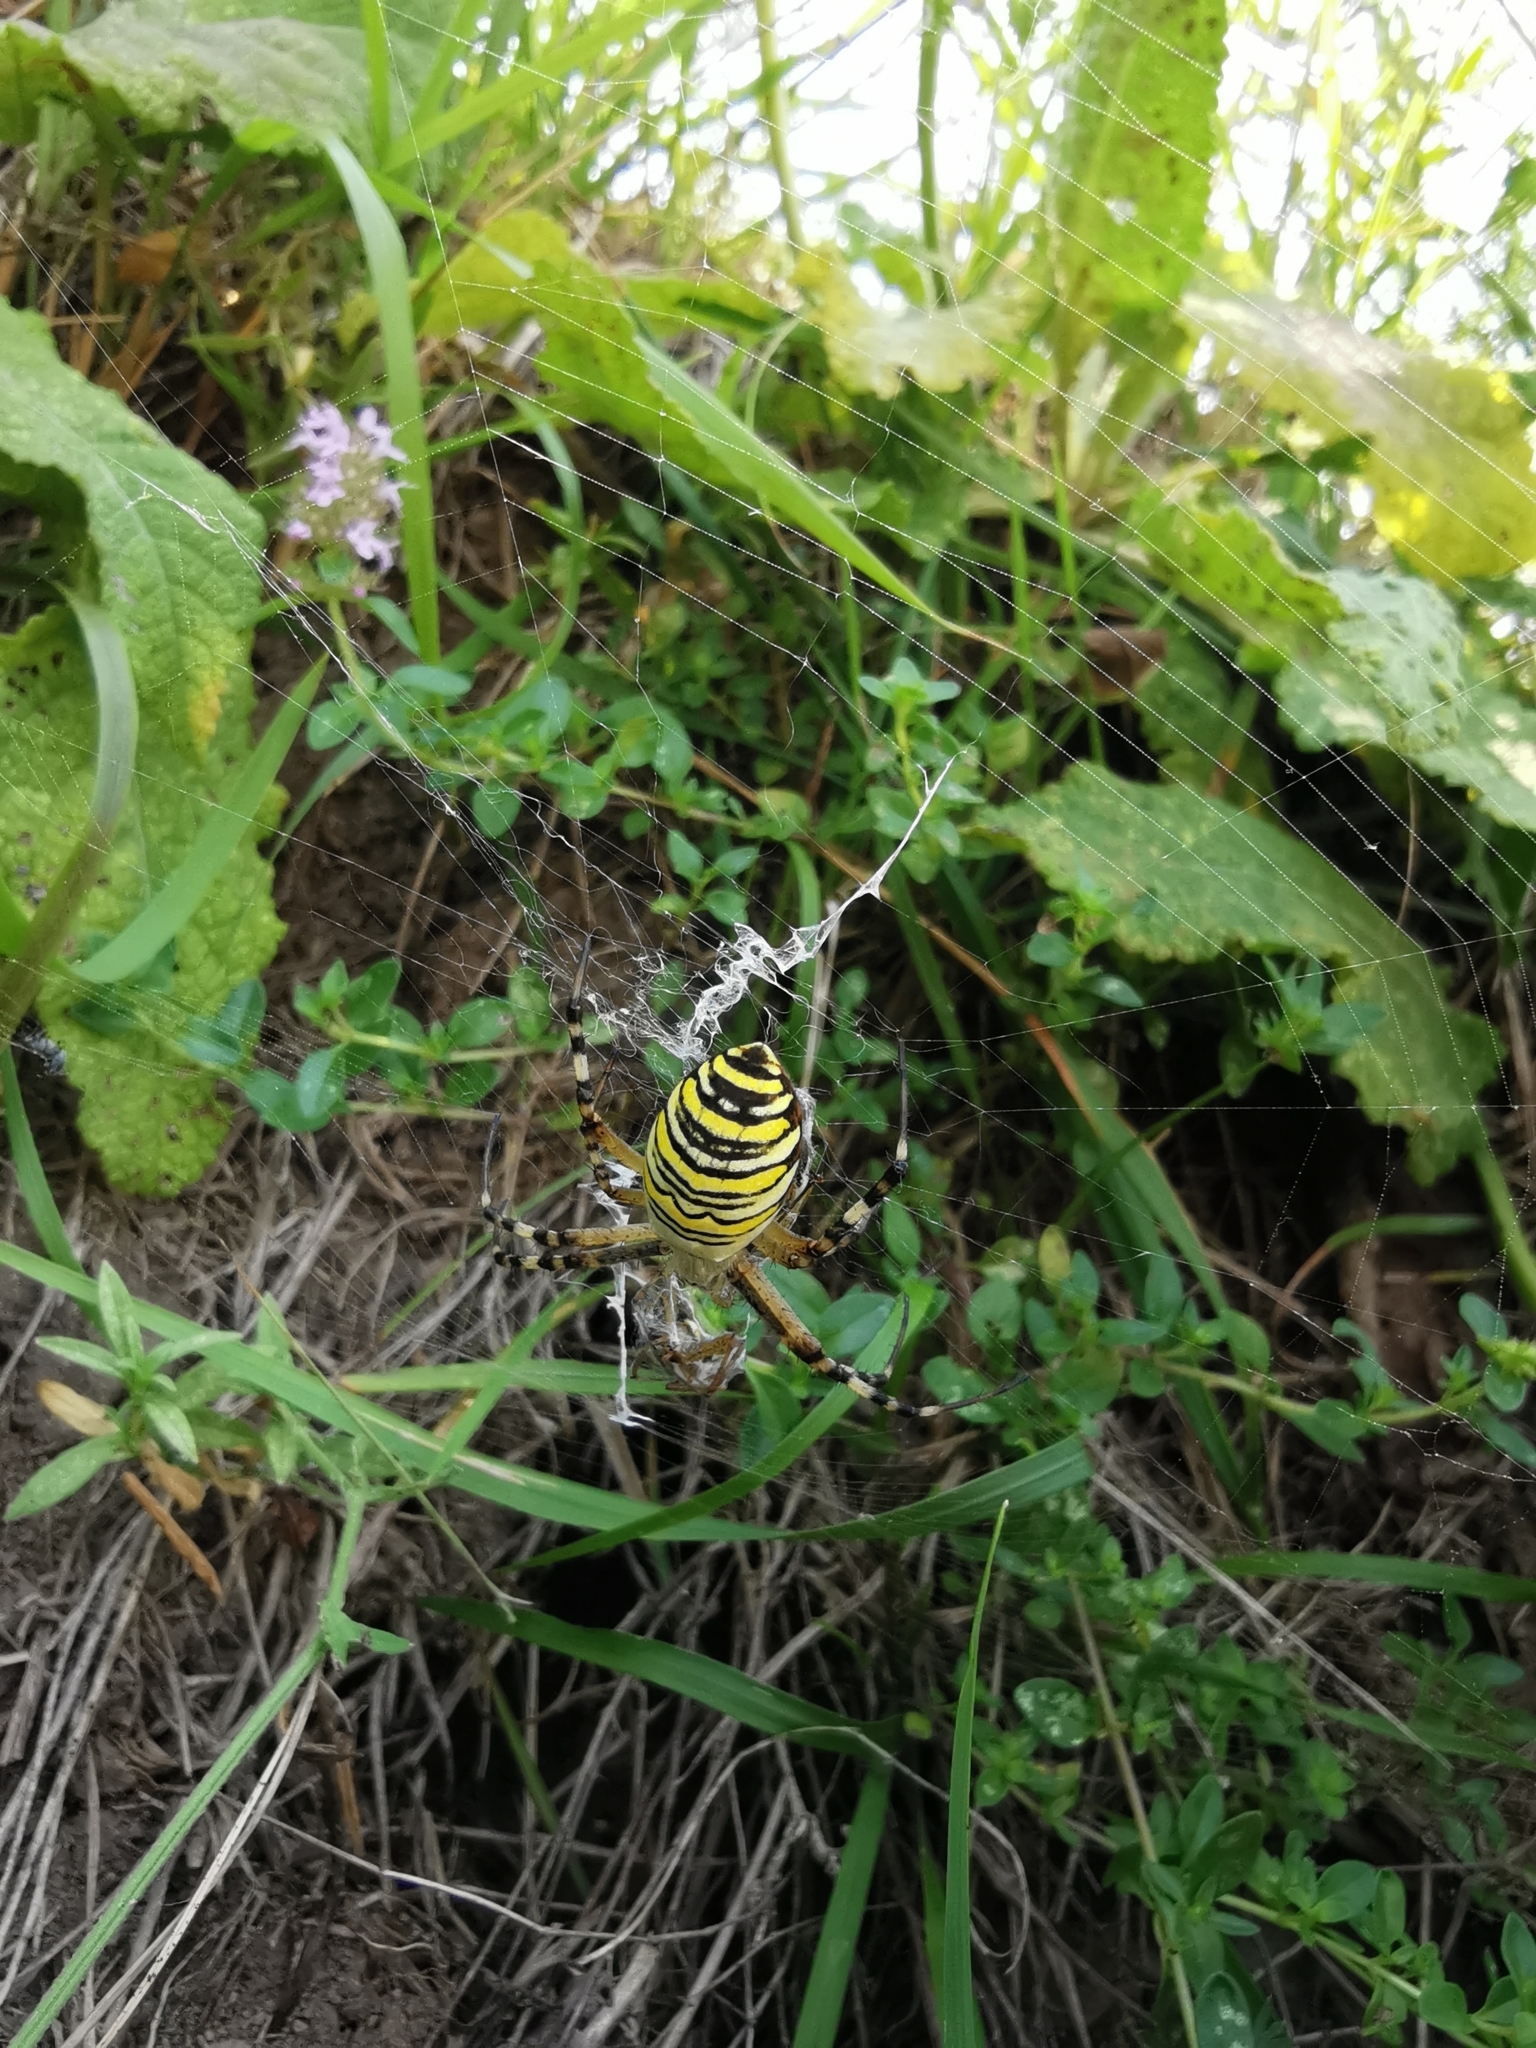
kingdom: Animalia
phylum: Arthropoda
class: Arachnida
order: Araneae
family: Araneidae
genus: Argiope
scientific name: Argiope bruennichi
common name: Wasp spider
